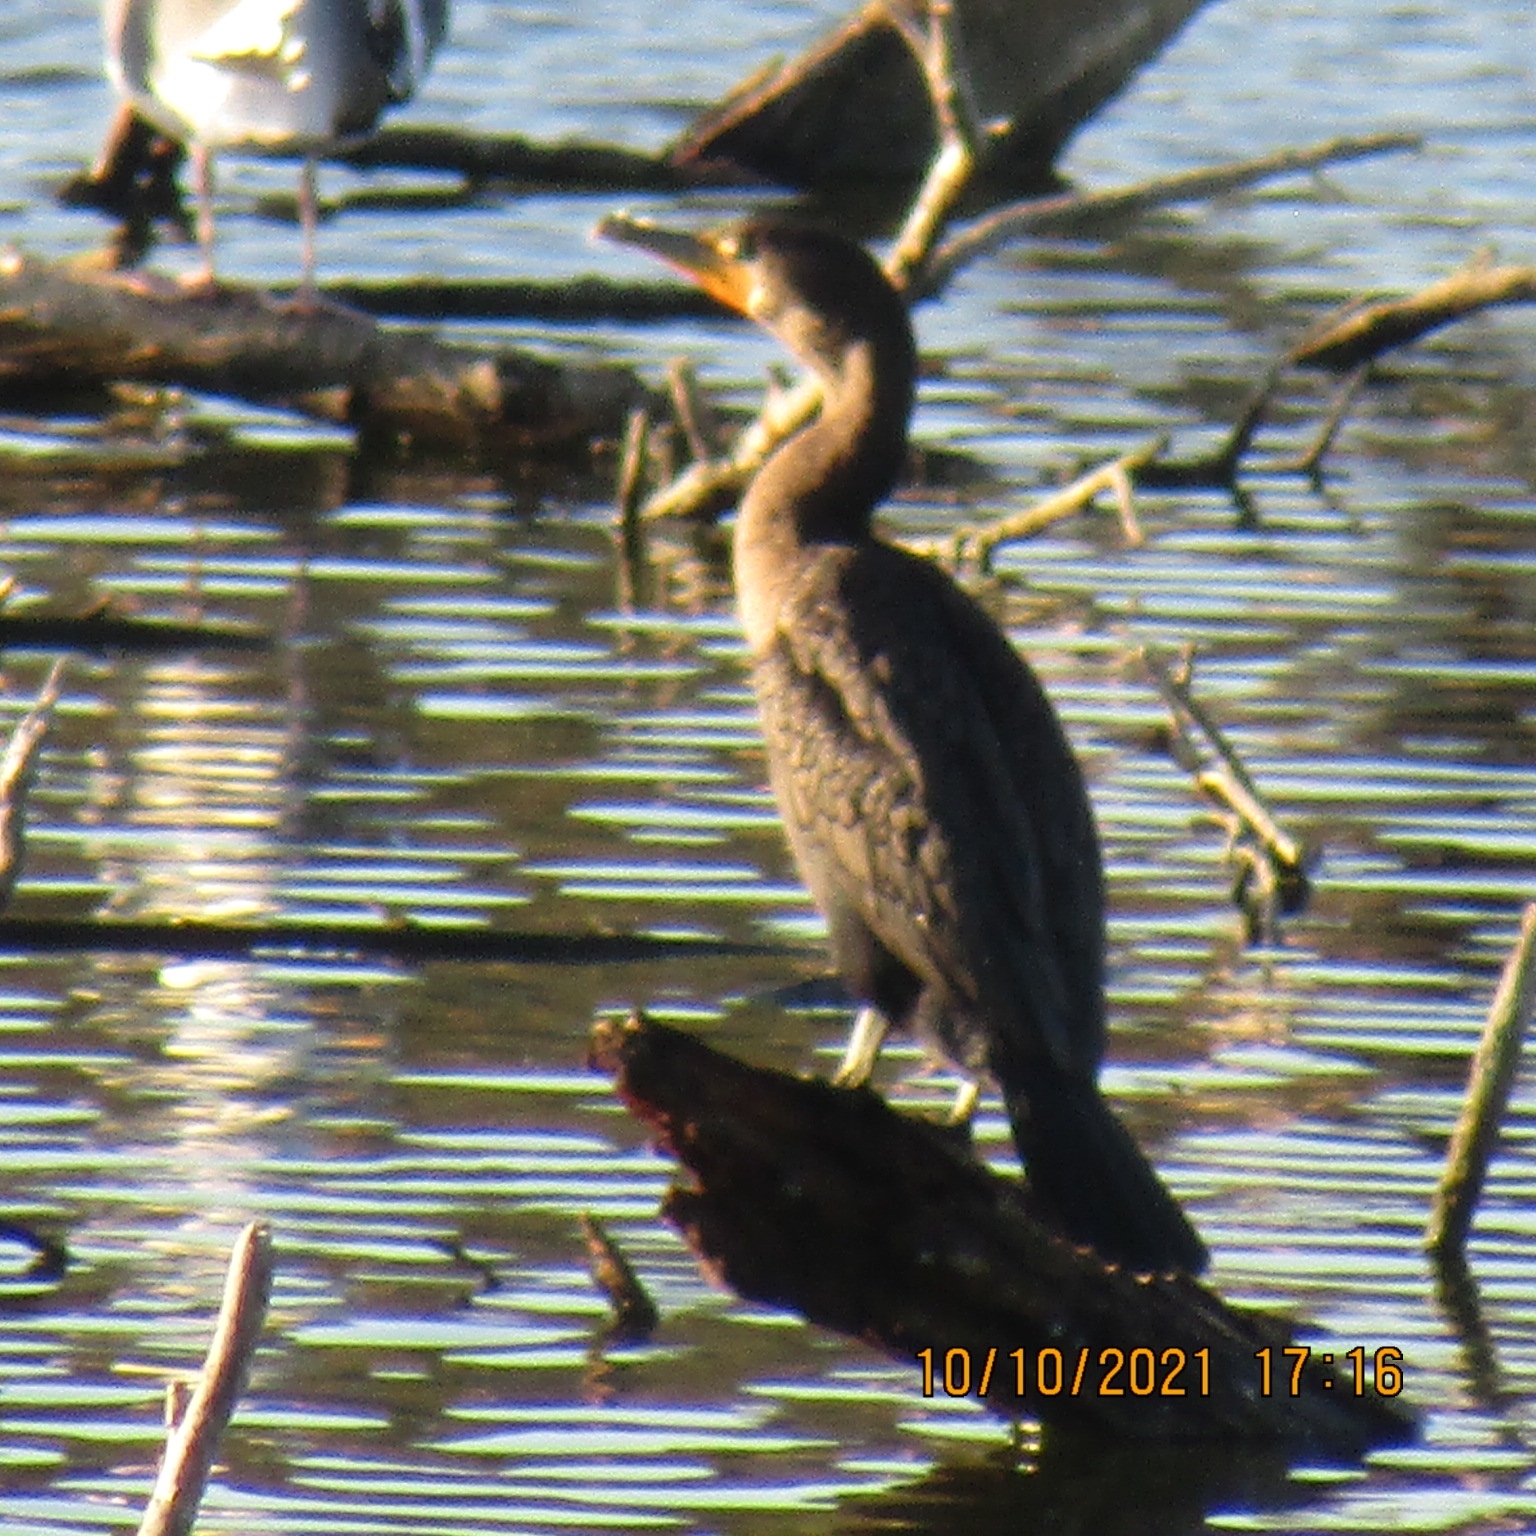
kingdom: Animalia
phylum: Chordata
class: Aves
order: Suliformes
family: Phalacrocoracidae
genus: Phalacrocorax
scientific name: Phalacrocorax auritus
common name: Double-crested cormorant
